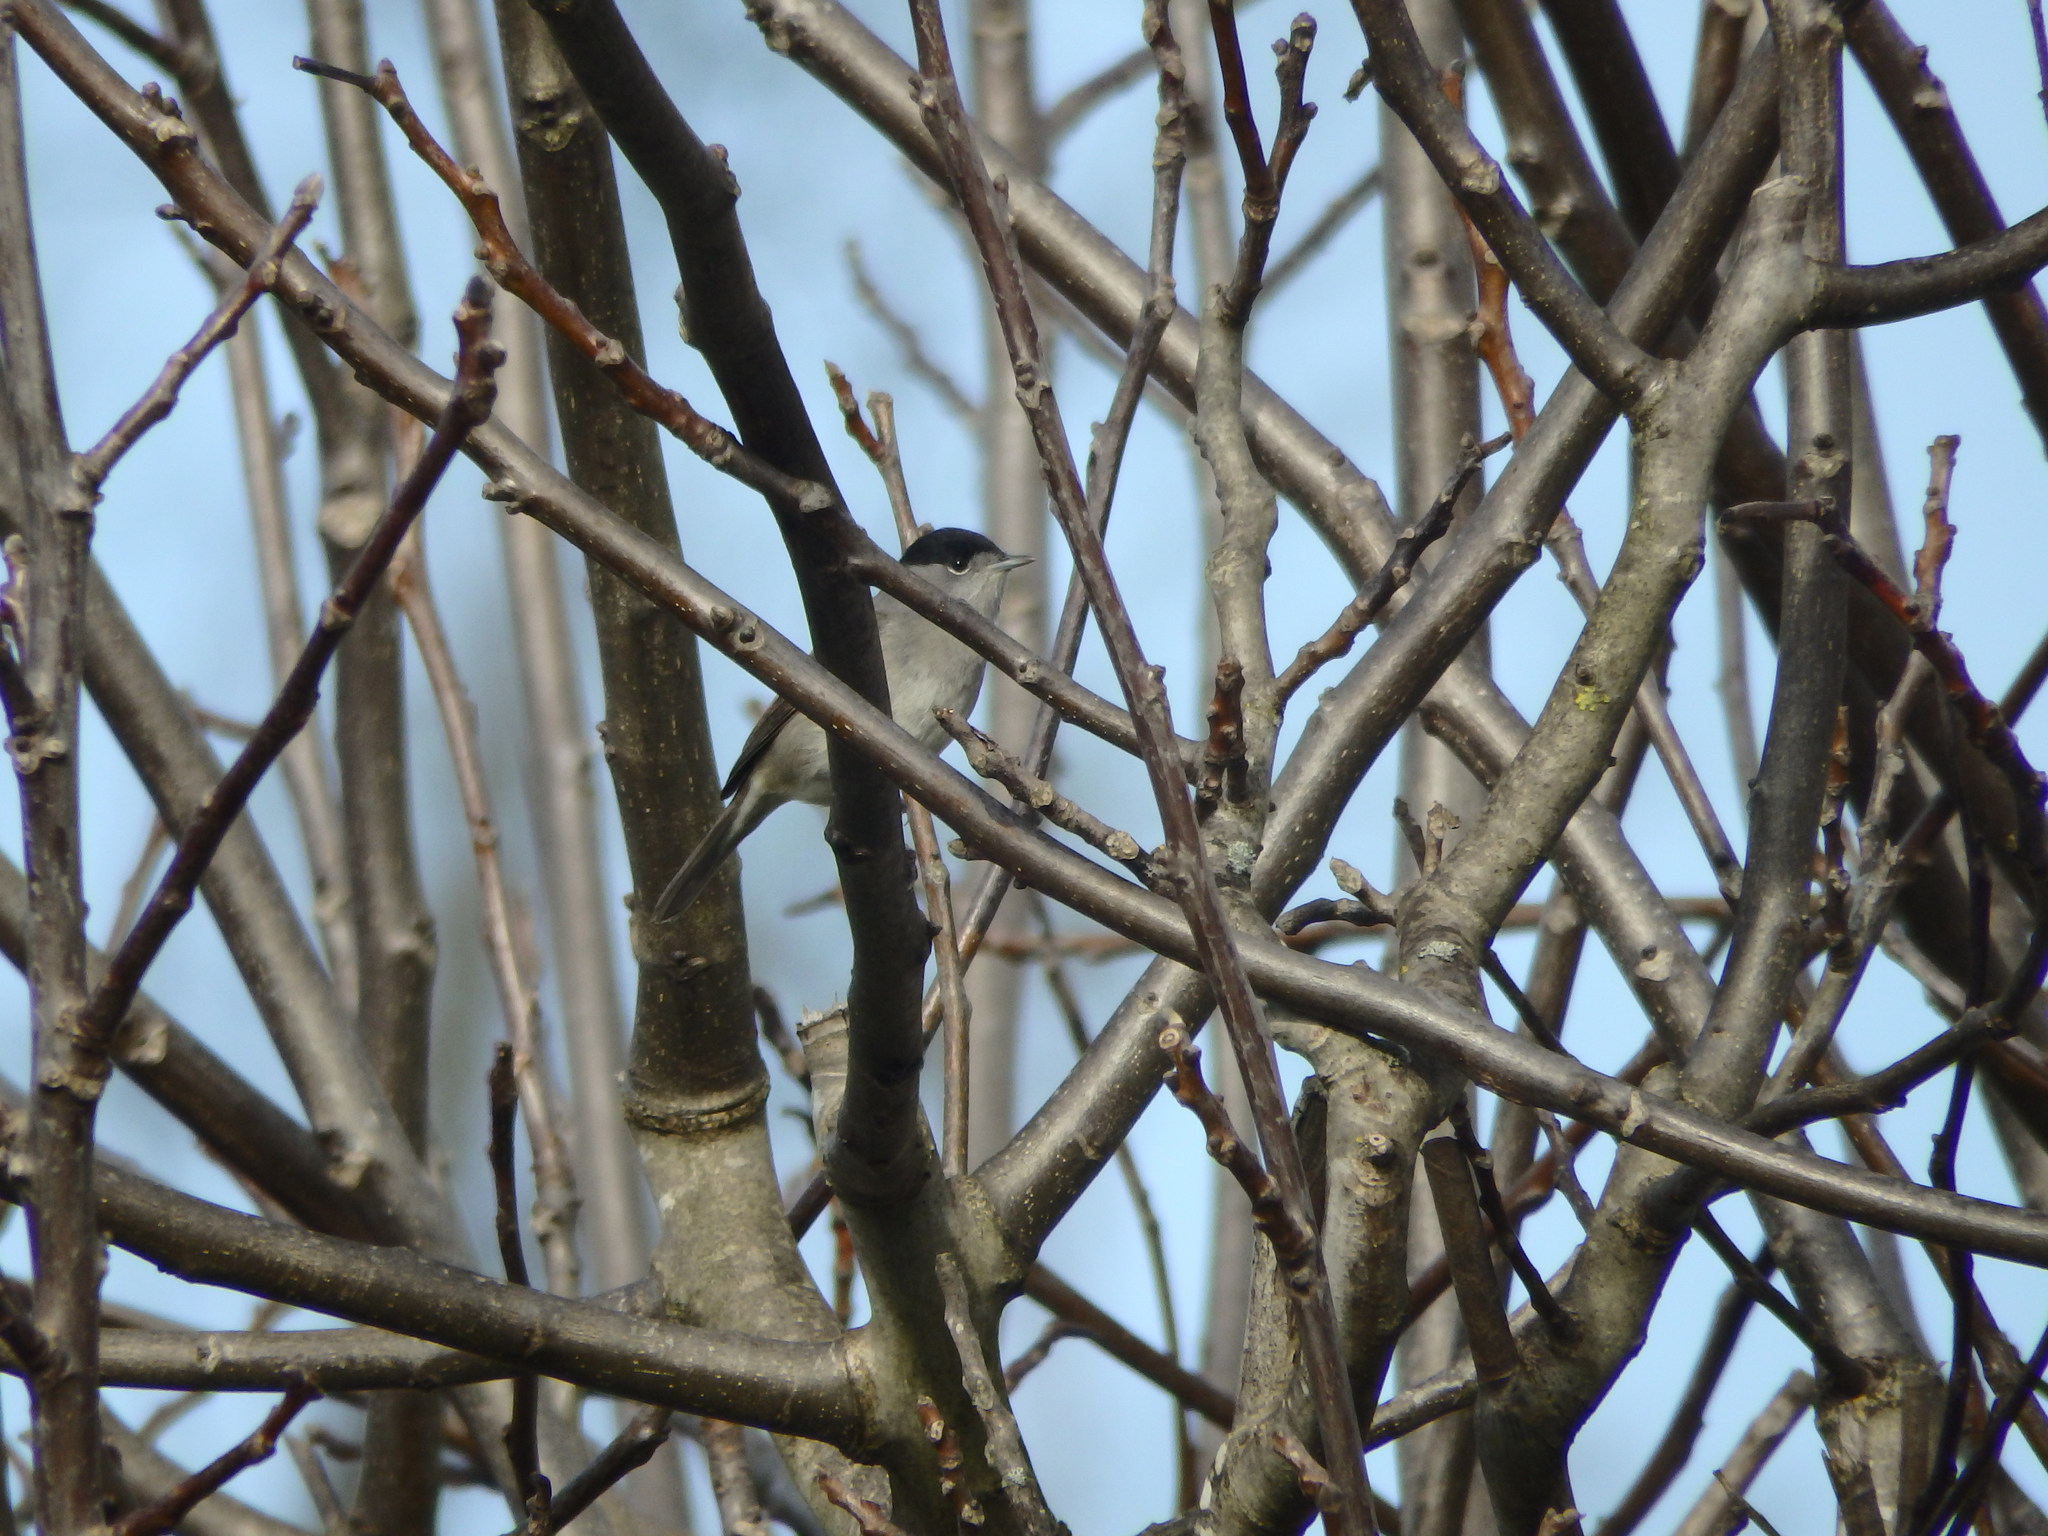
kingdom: Animalia
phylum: Chordata
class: Aves
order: Passeriformes
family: Sylviidae
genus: Sylvia
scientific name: Sylvia atricapilla
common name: Eurasian blackcap
